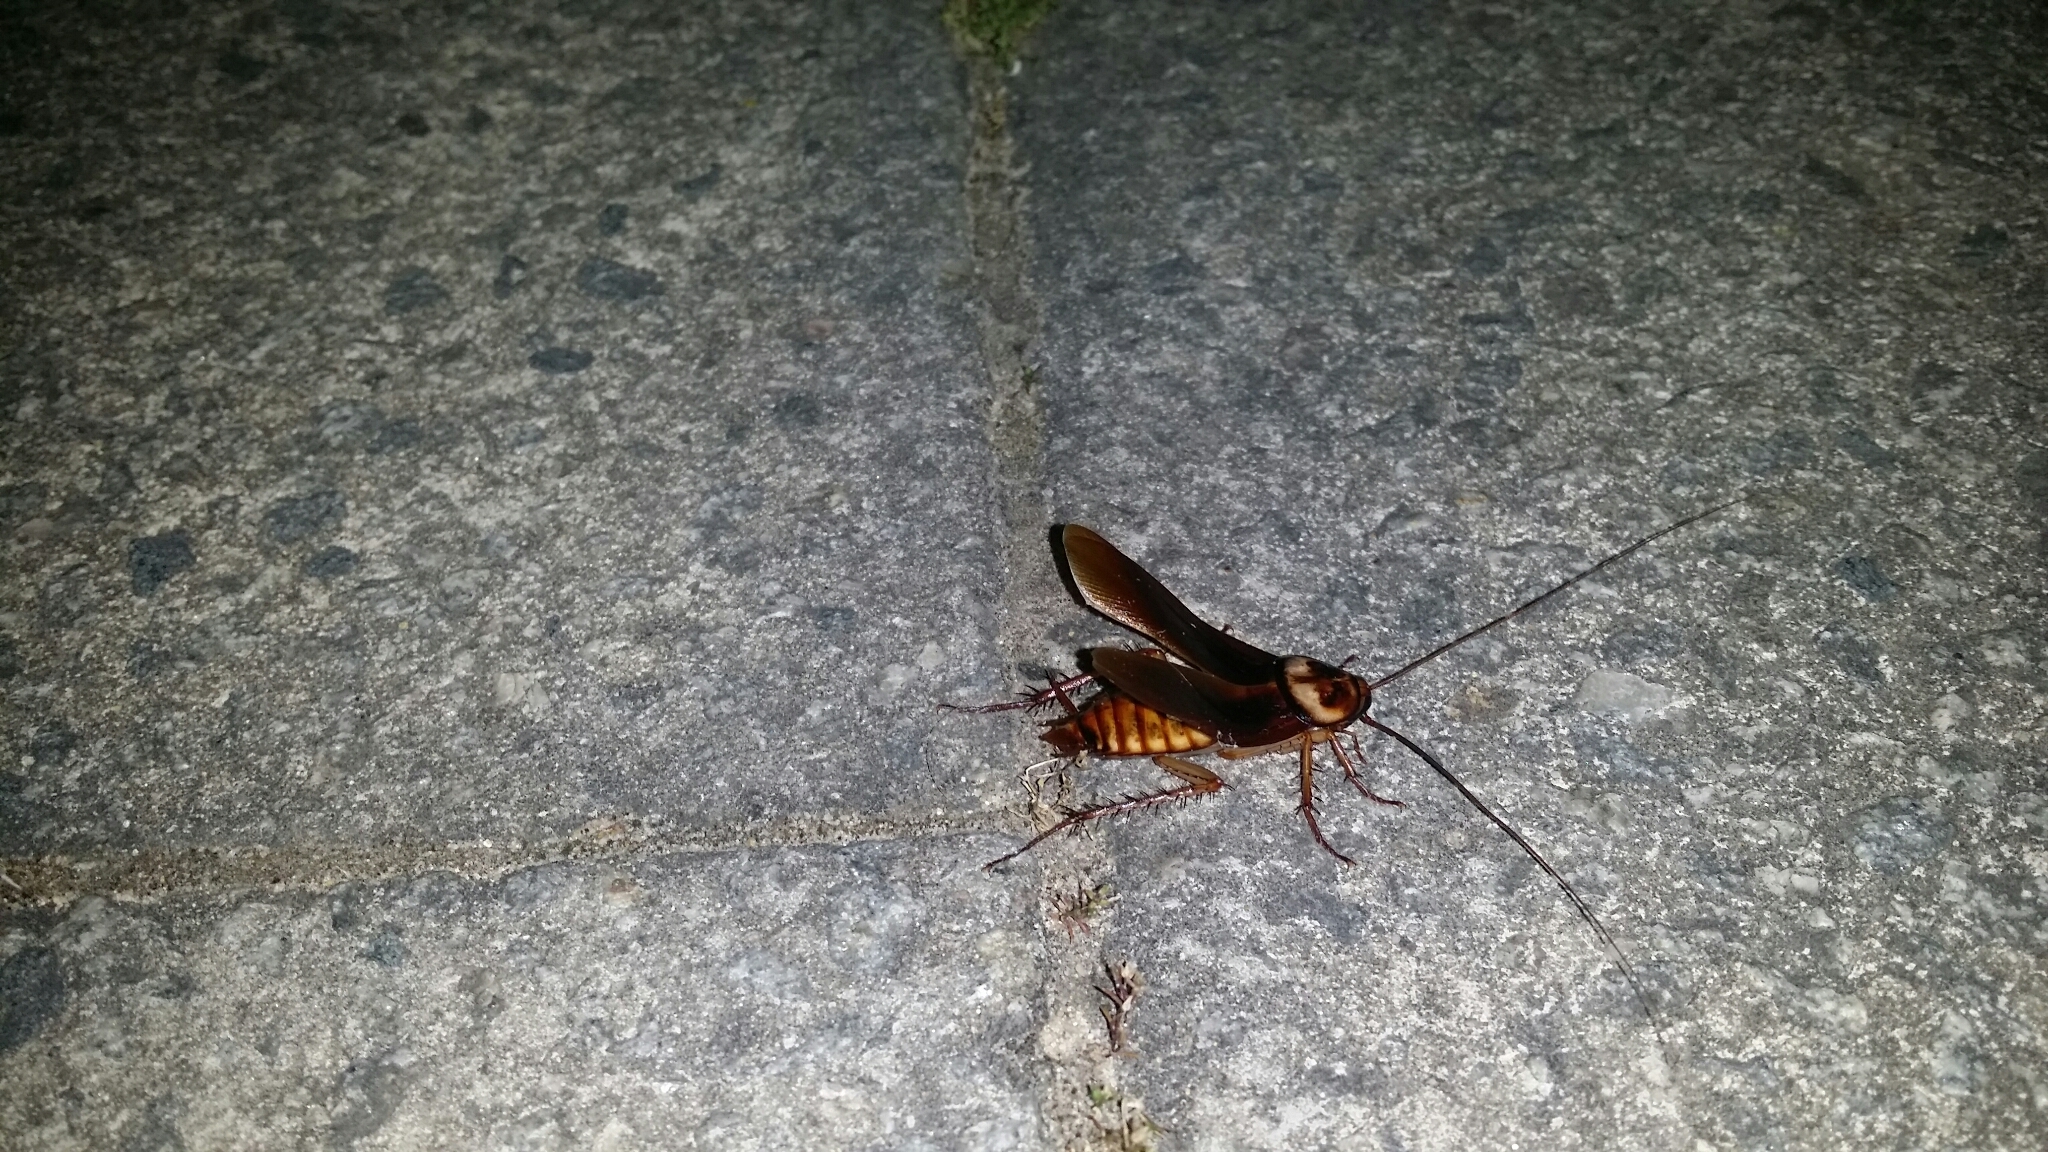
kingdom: Animalia
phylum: Arthropoda
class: Insecta
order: Blattodea
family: Blattidae
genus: Periplaneta
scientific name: Periplaneta americana
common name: American cockroach
